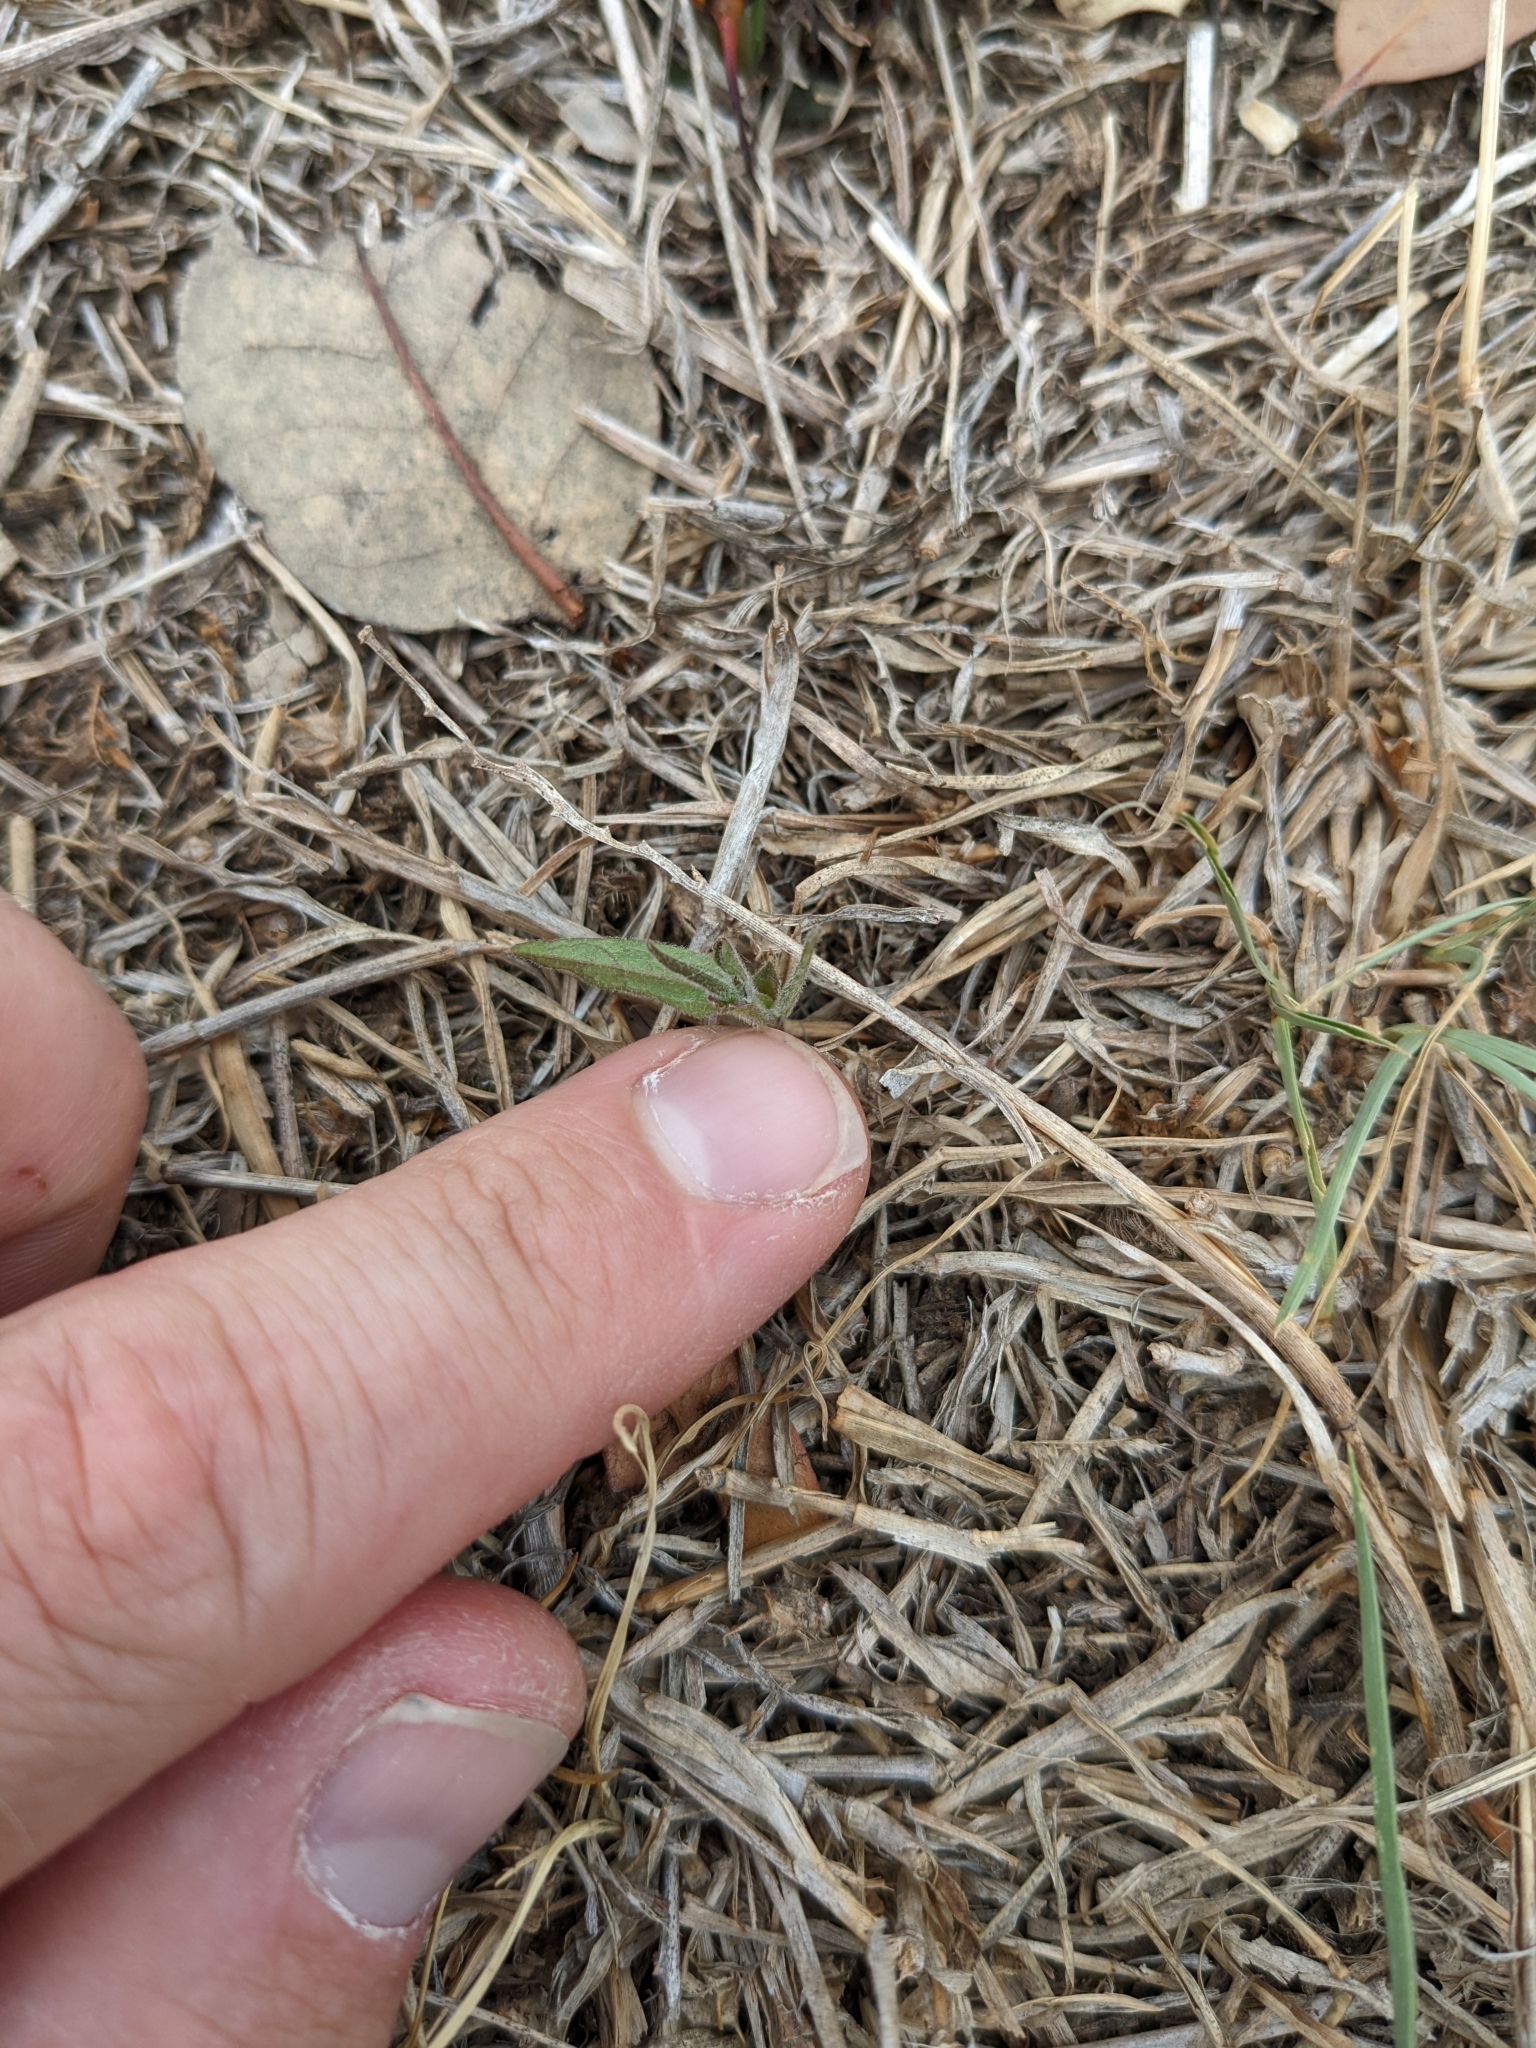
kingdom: Plantae
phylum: Tracheophyta
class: Magnoliopsida
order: Piperales
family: Aristolochiaceae
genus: Aristolochia
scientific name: Aristolochia erecta
